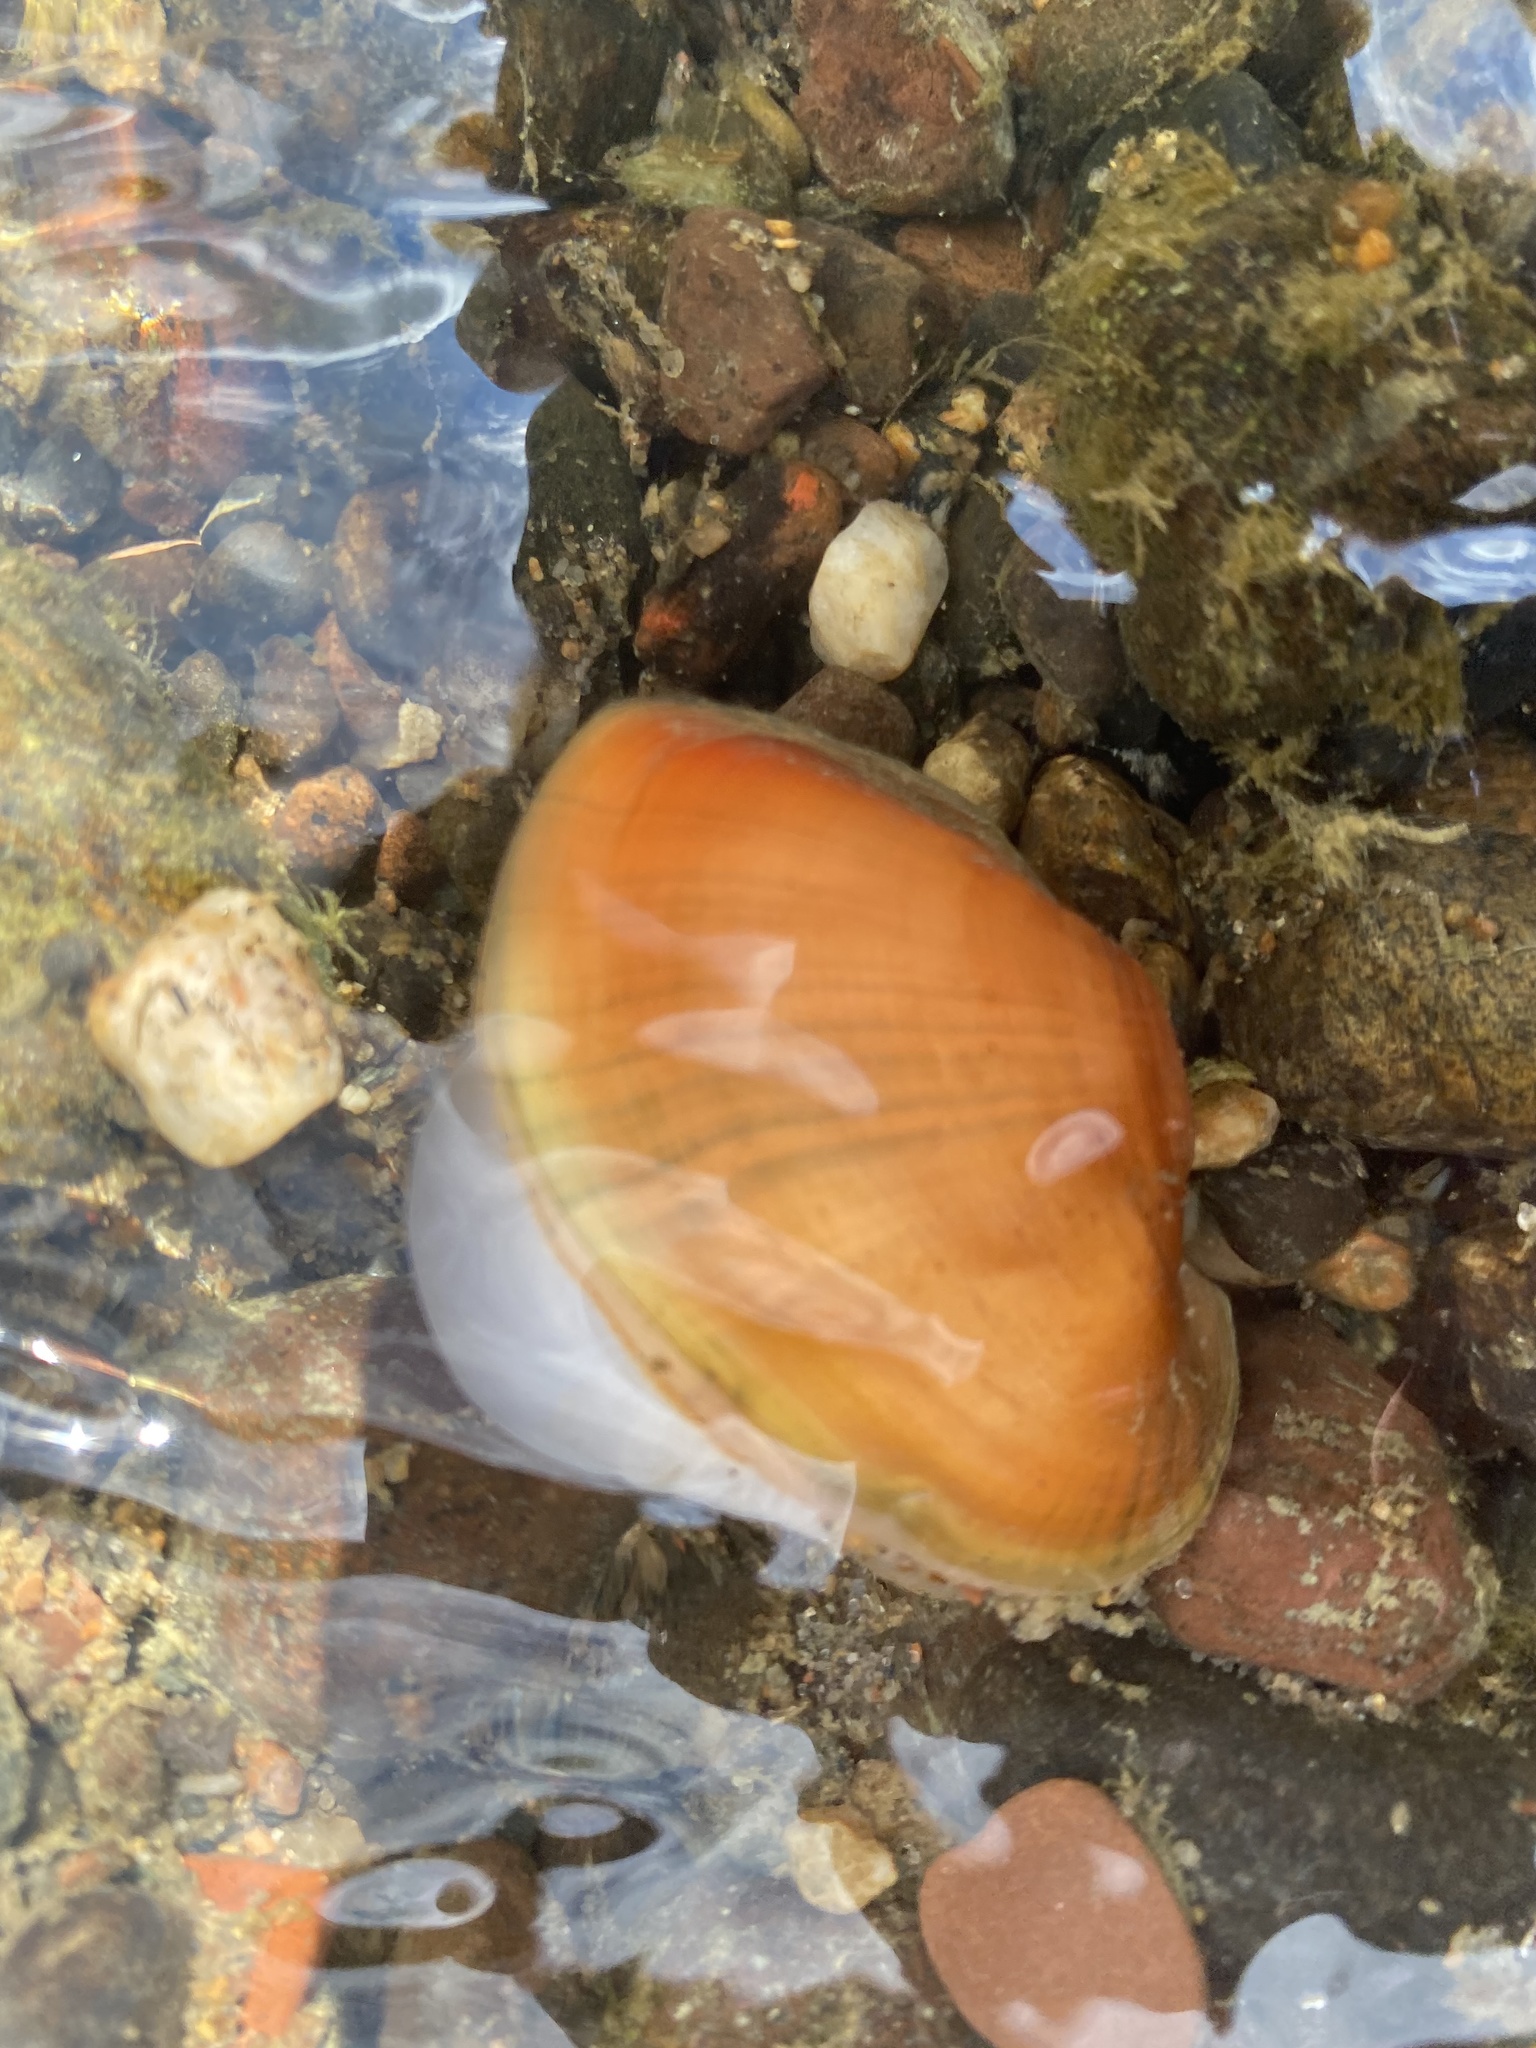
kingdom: Animalia
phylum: Mollusca
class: Bivalvia
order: Unionida
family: Unionidae
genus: Lampsilis
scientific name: Lampsilis cardium
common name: Plain pocketbook
